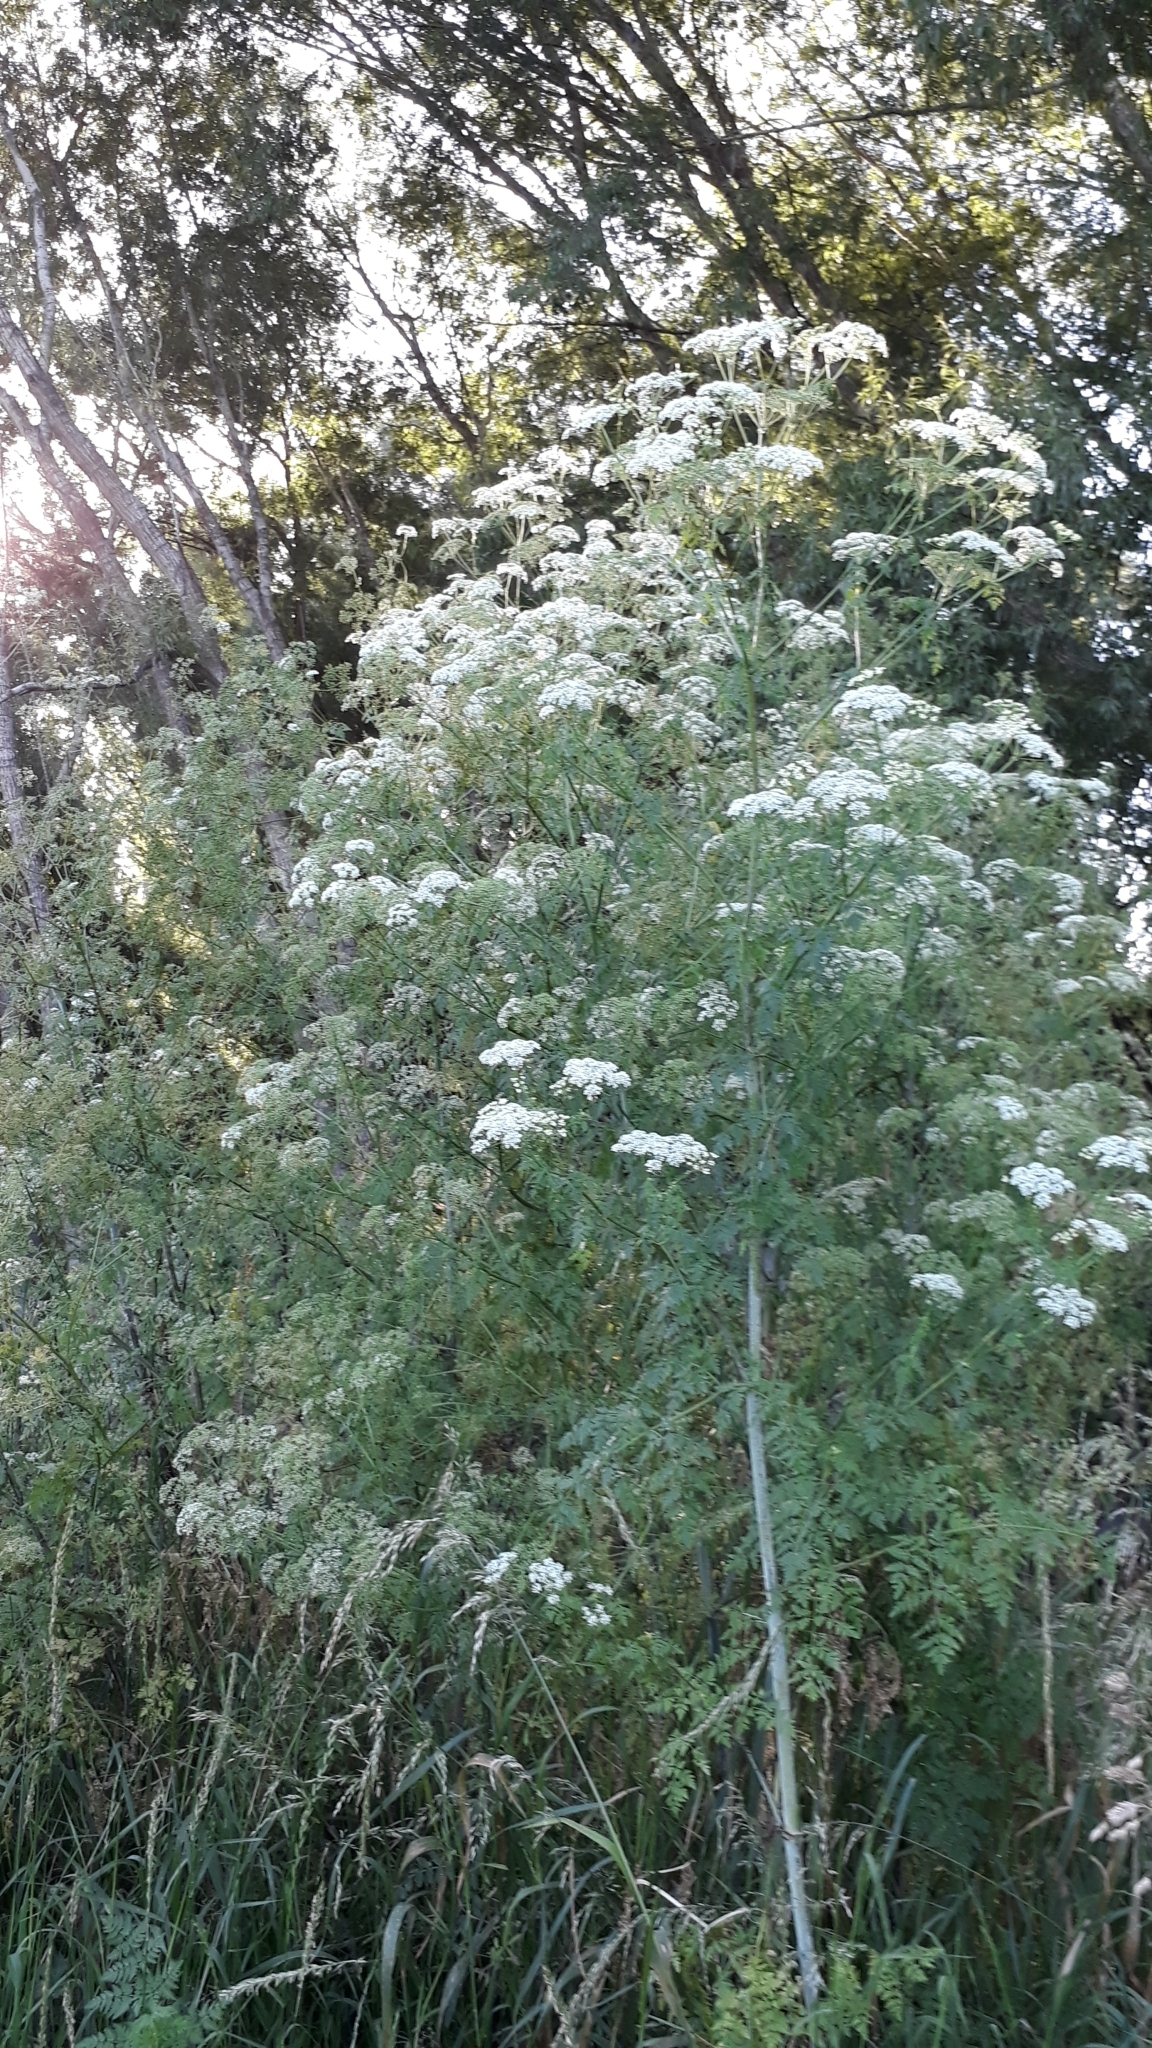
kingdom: Plantae
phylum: Tracheophyta
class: Magnoliopsida
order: Apiales
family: Apiaceae
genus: Conium
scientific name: Conium maculatum
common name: Hemlock
